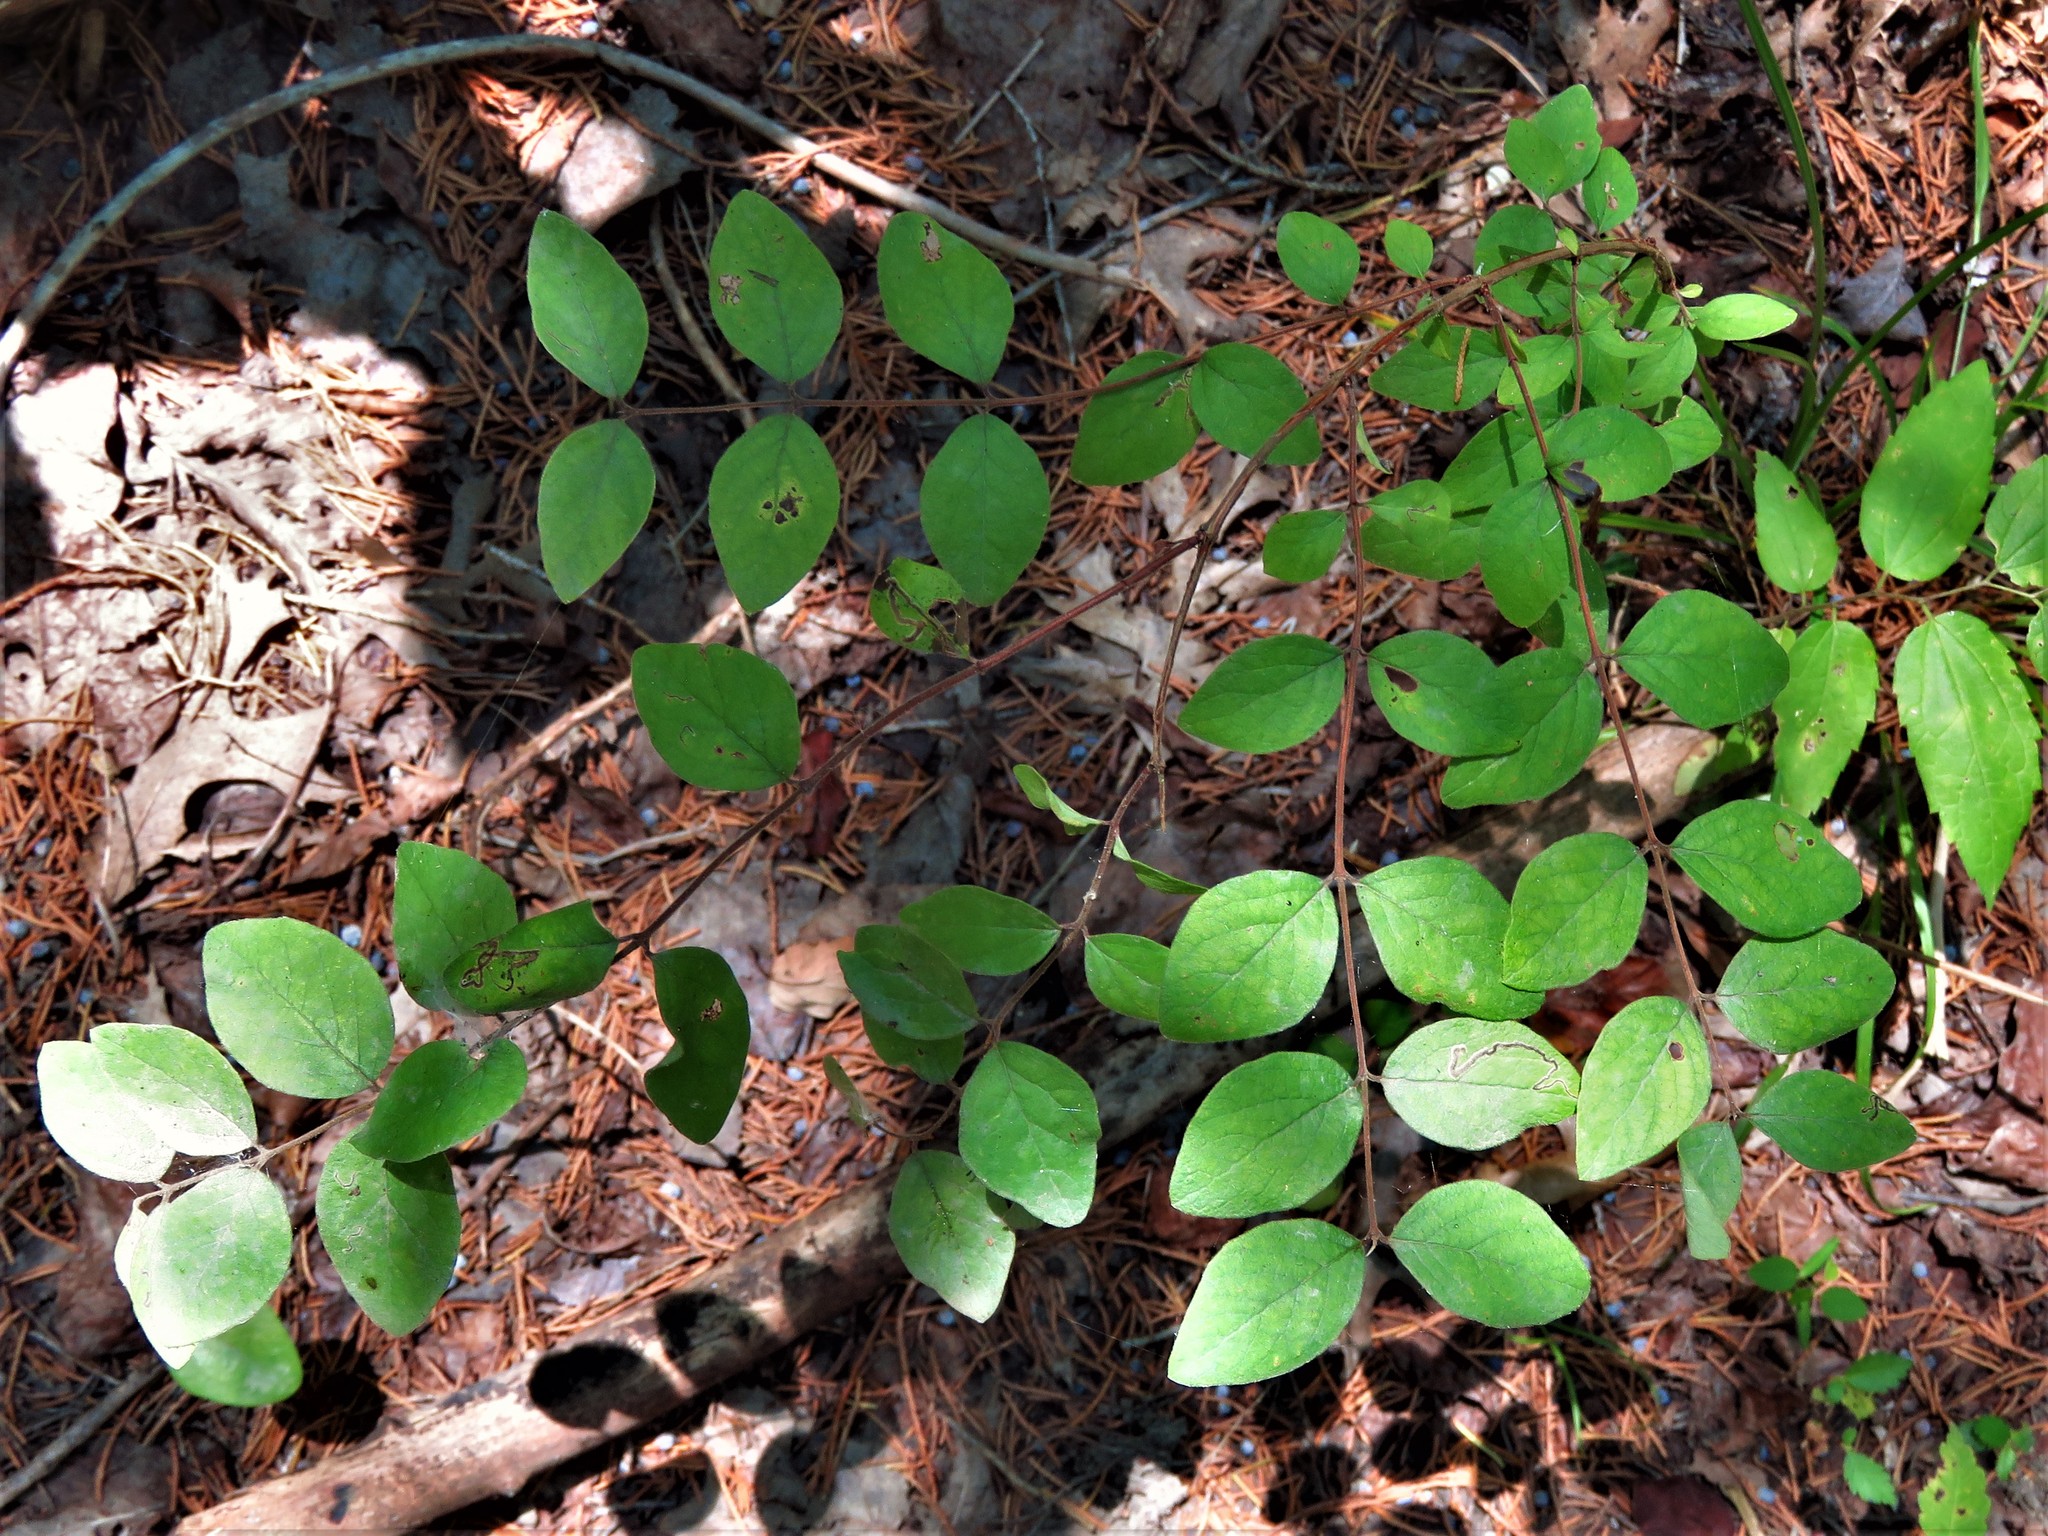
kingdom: Plantae
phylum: Tracheophyta
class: Magnoliopsida
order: Dipsacales
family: Caprifoliaceae
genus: Symphoricarpos
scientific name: Symphoricarpos orbiculatus
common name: Coralberry
